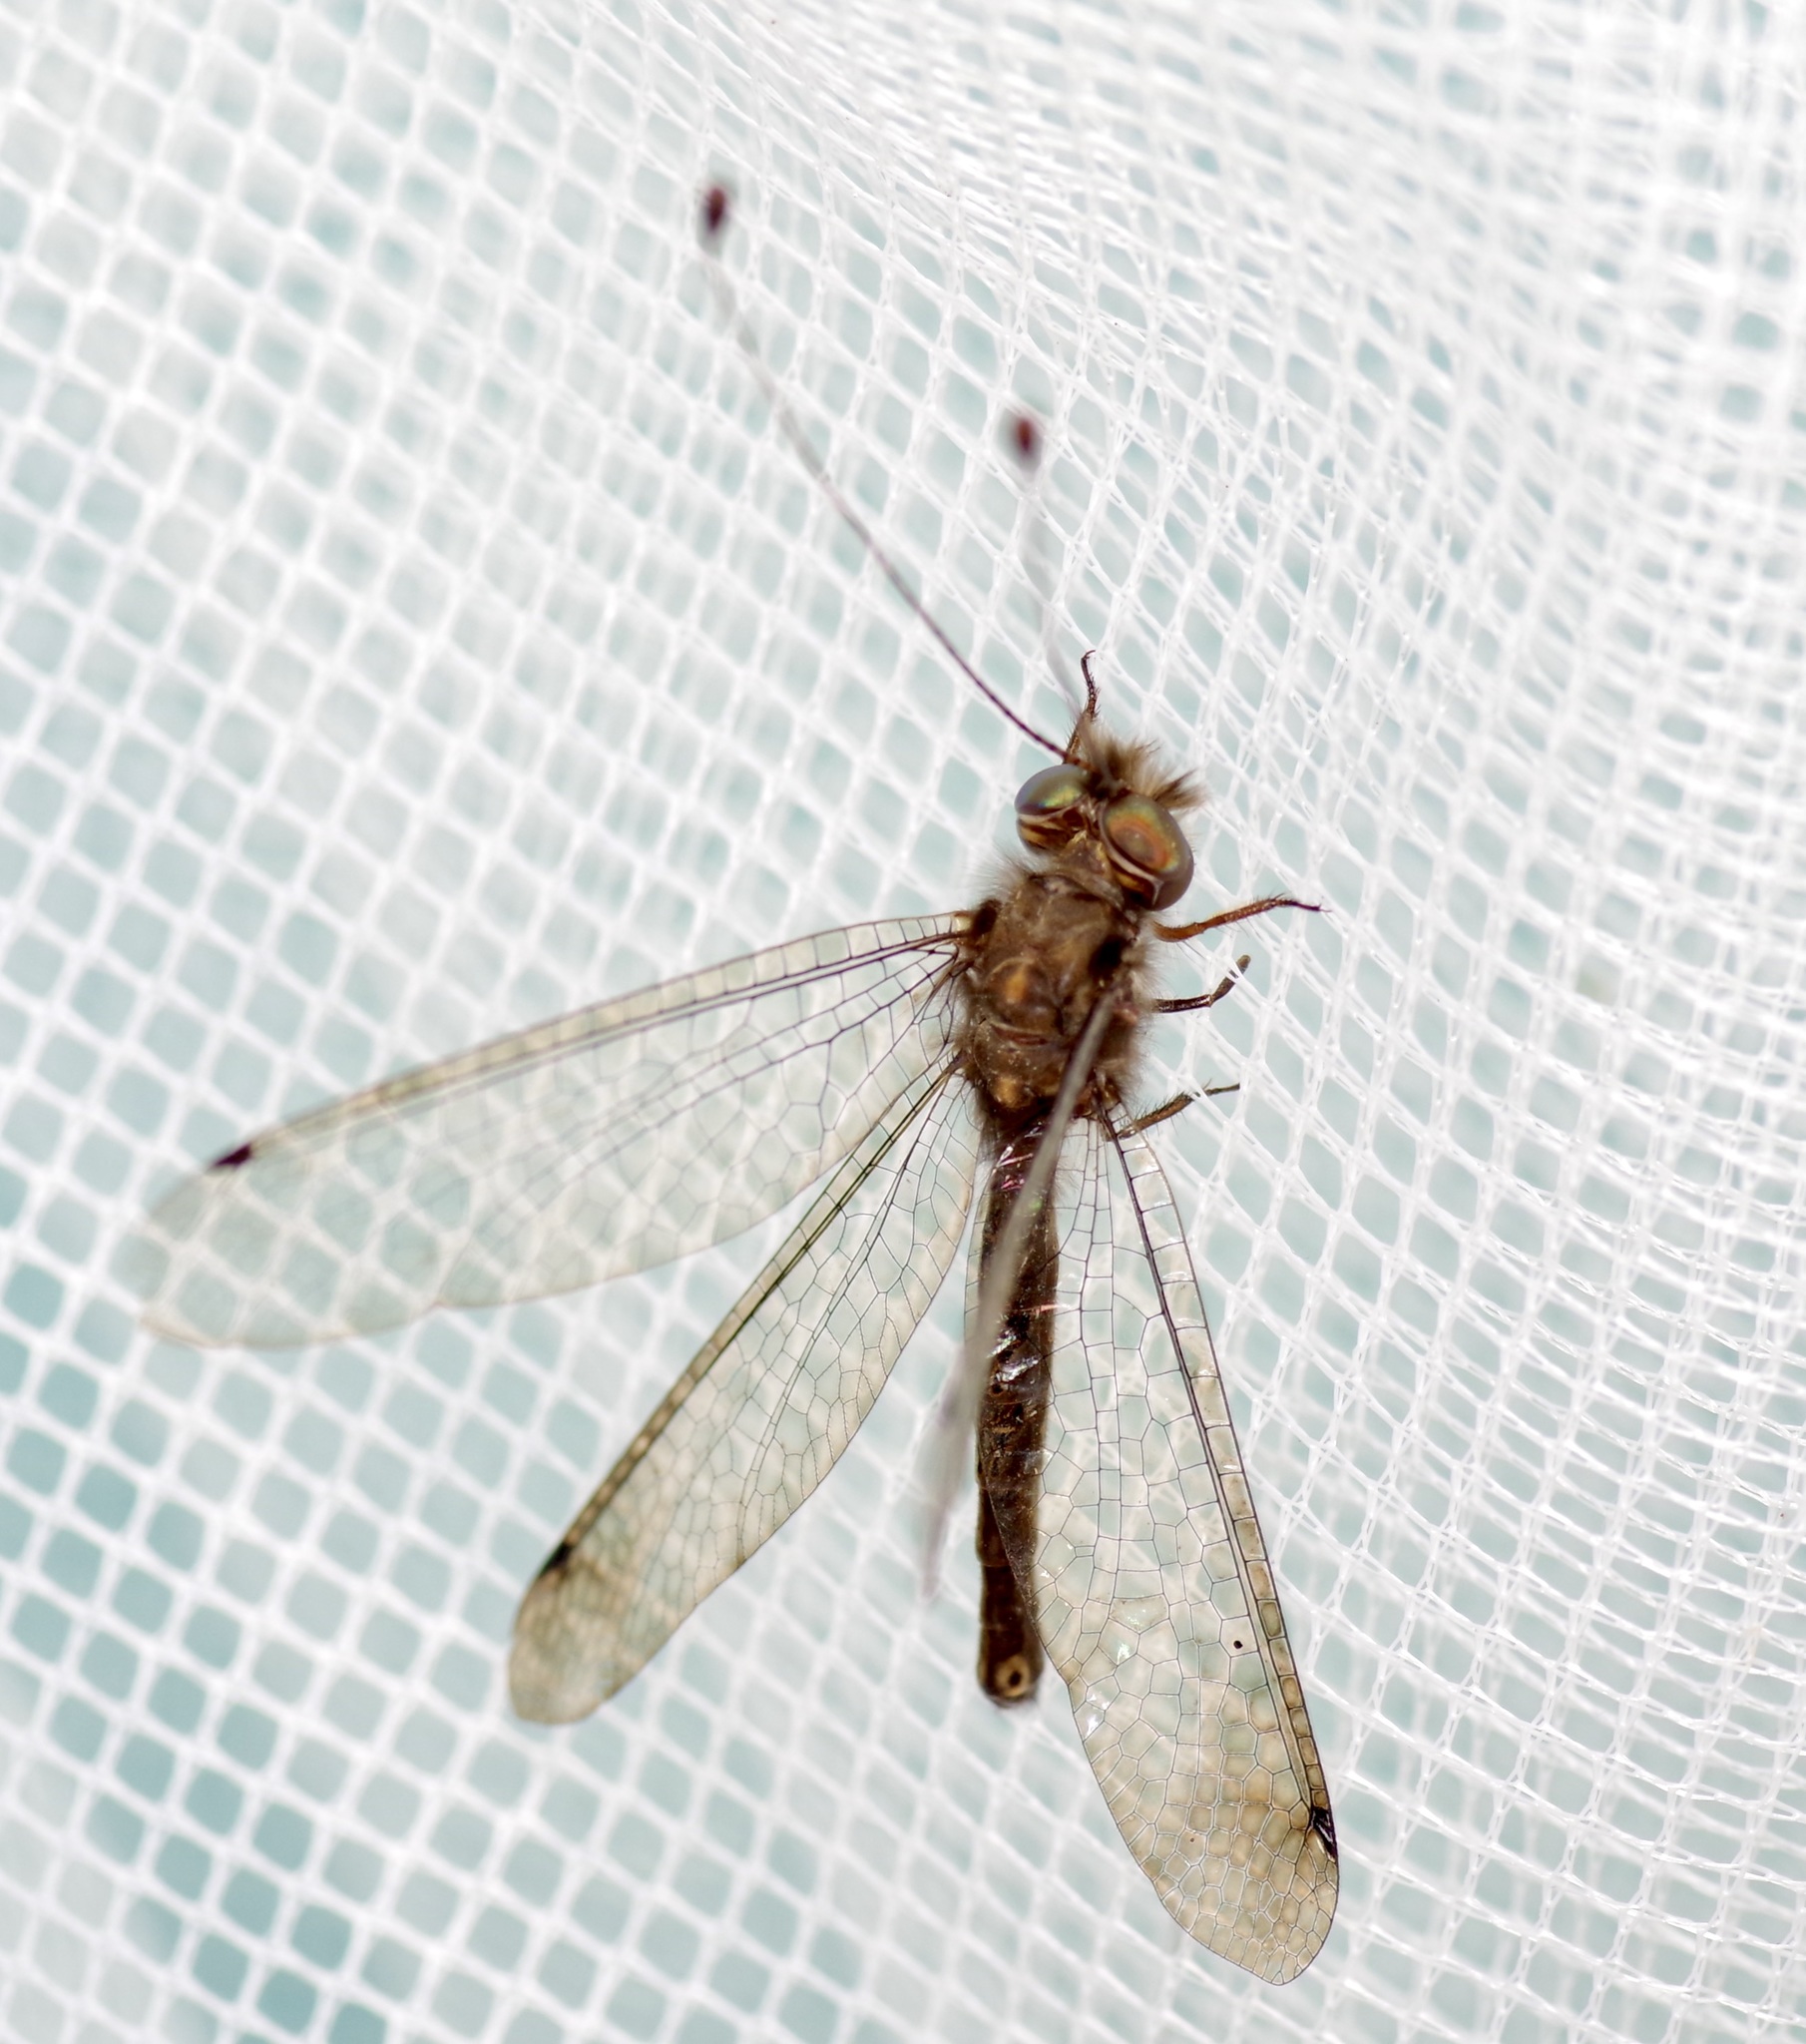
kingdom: Animalia
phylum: Arthropoda
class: Insecta
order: Neuroptera
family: Ascalaphidae
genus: Ululodes
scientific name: Ululodes macleayanus
